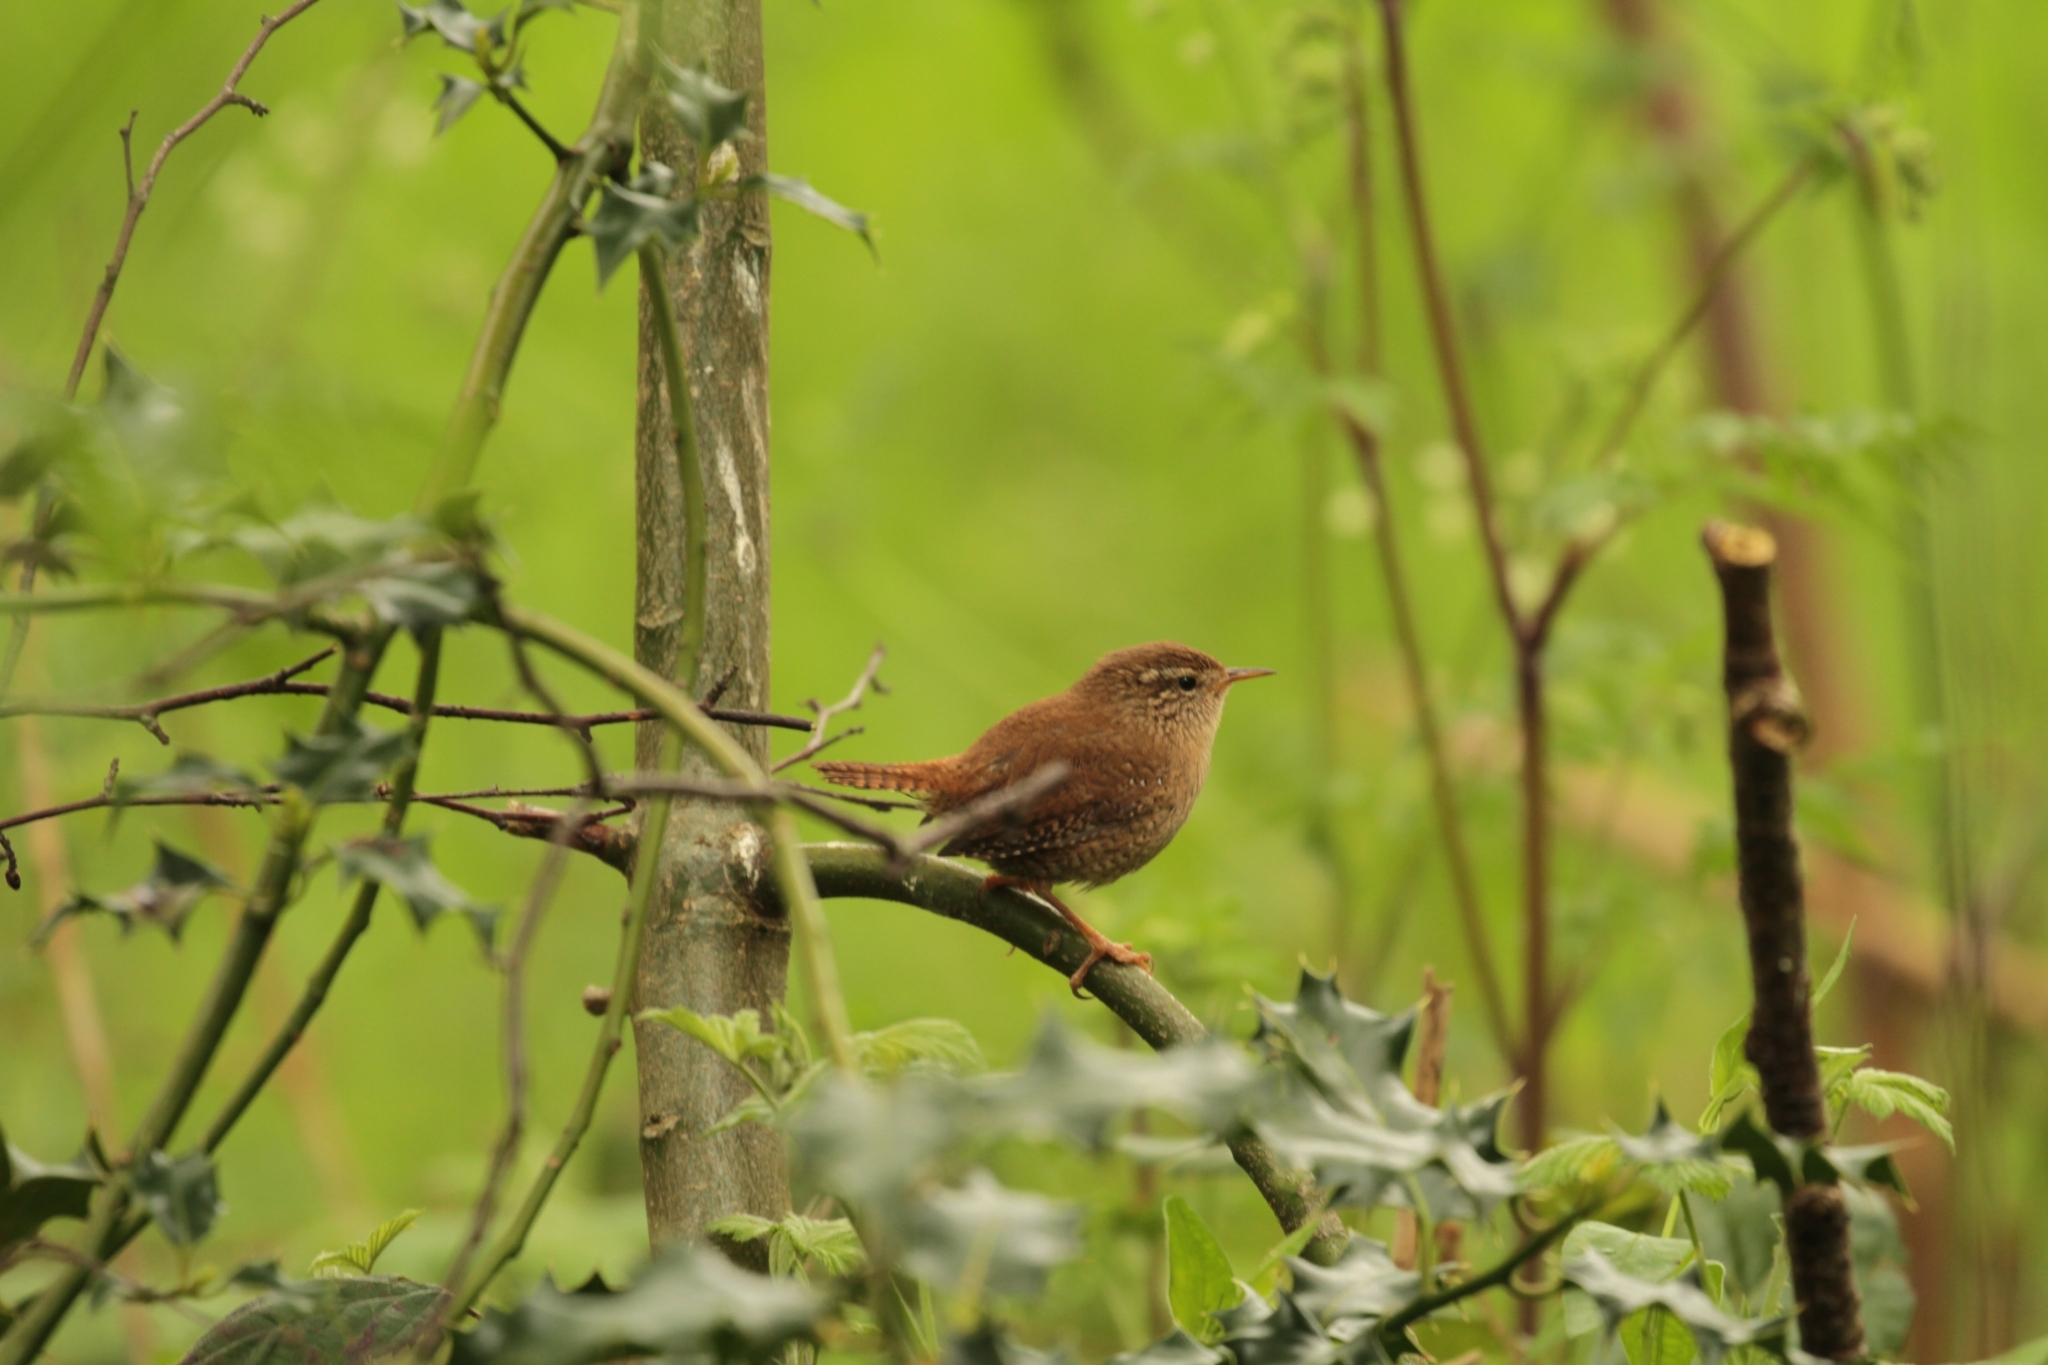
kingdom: Animalia
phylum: Chordata
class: Aves
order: Passeriformes
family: Troglodytidae
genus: Troglodytes
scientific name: Troglodytes troglodytes
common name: Eurasian wren
